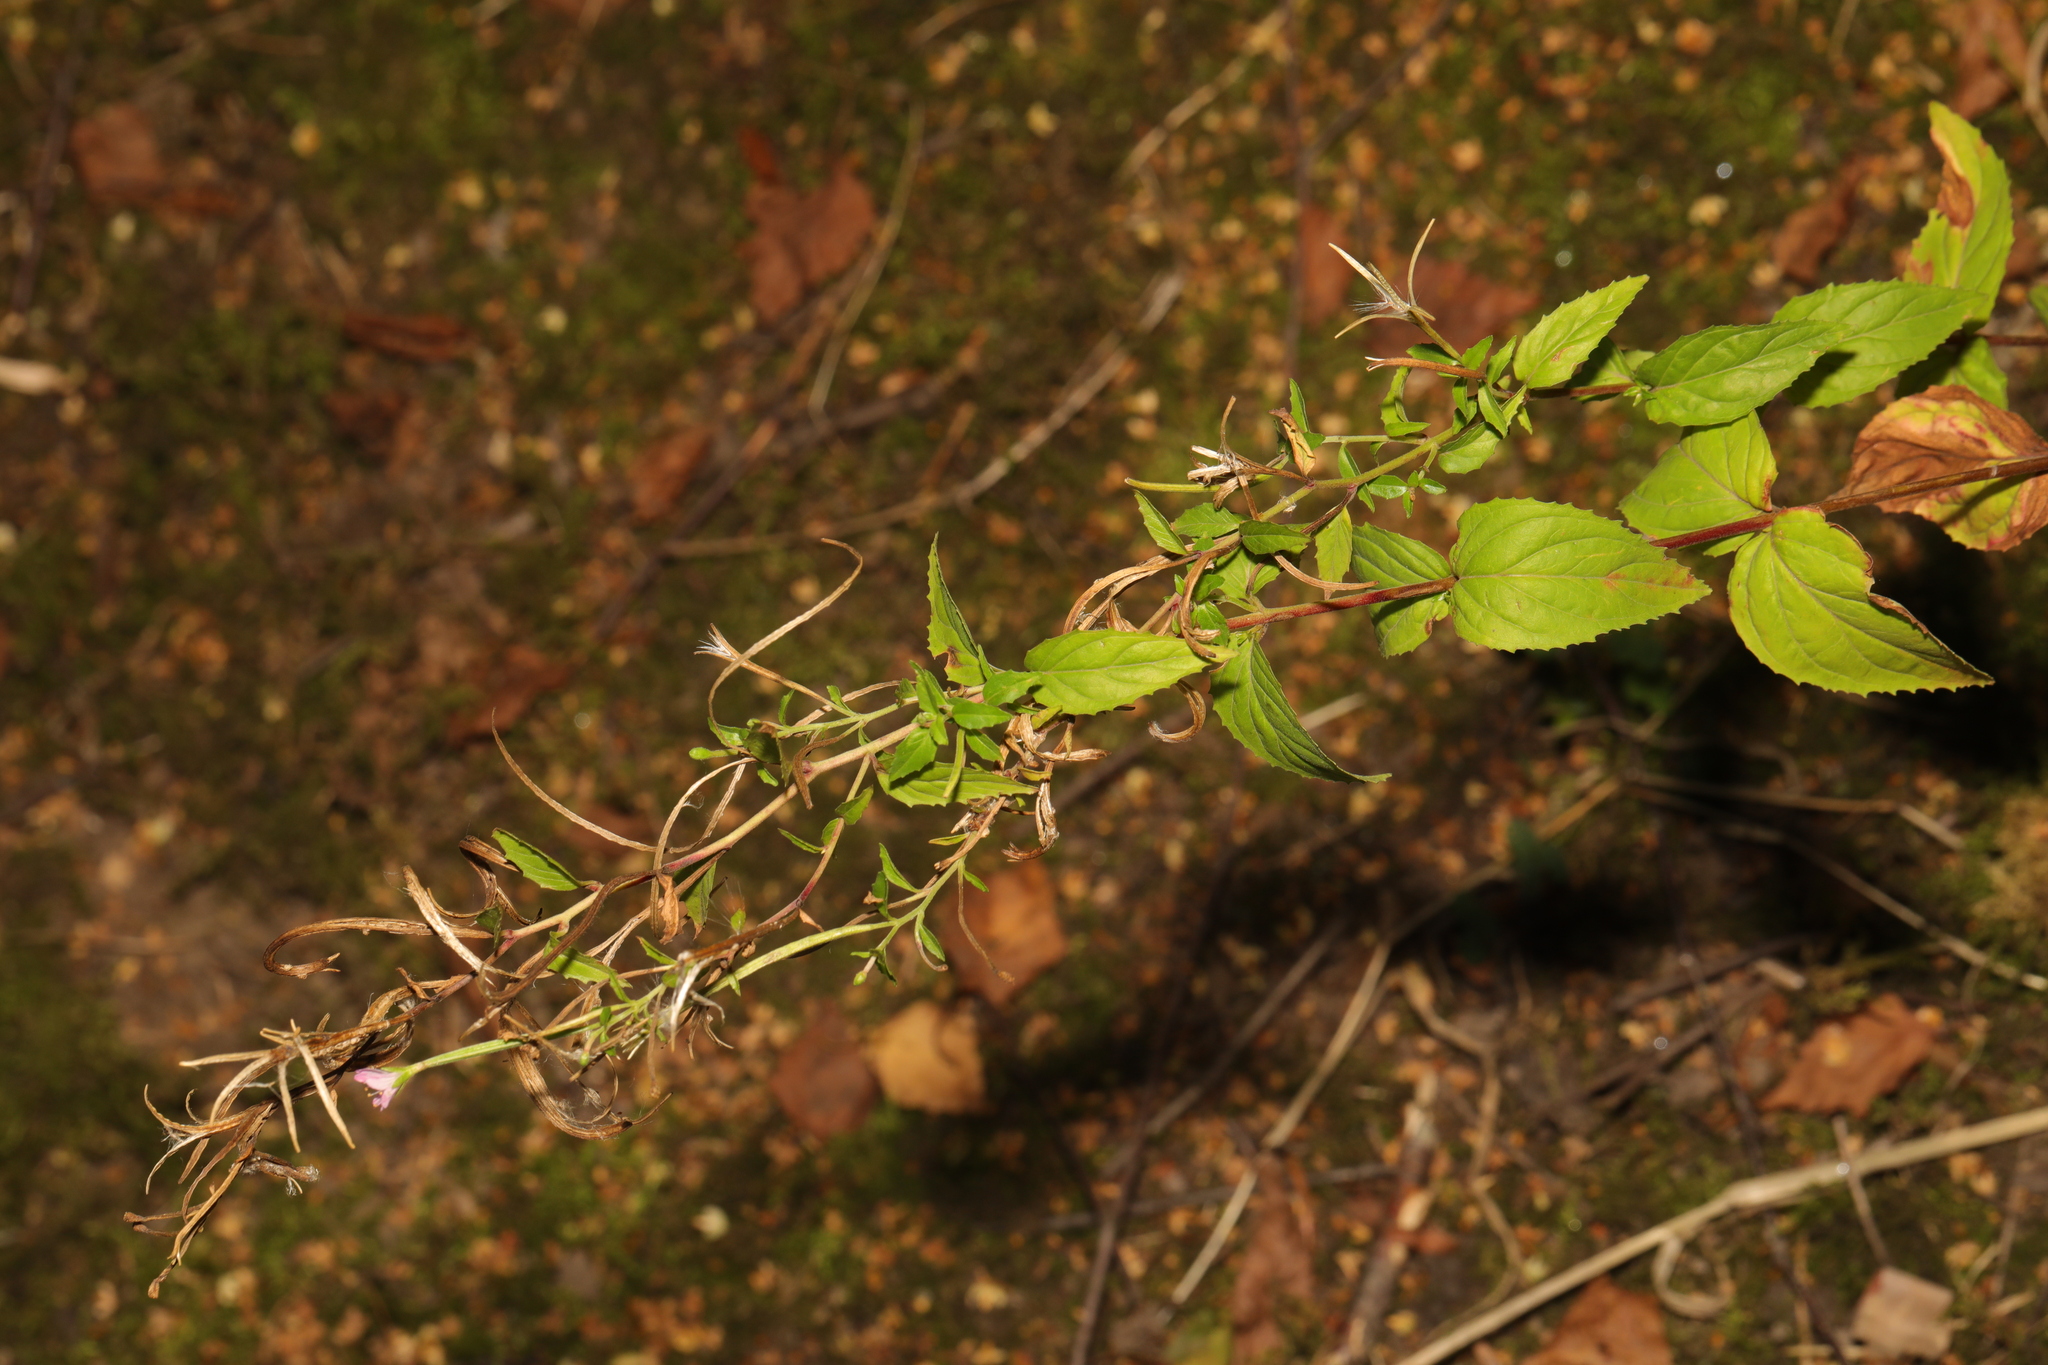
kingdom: Plantae
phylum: Tracheophyta
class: Magnoliopsida
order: Myrtales
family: Onagraceae
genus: Epilobium
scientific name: Epilobium montanum
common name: Broad-leaved willowherb
